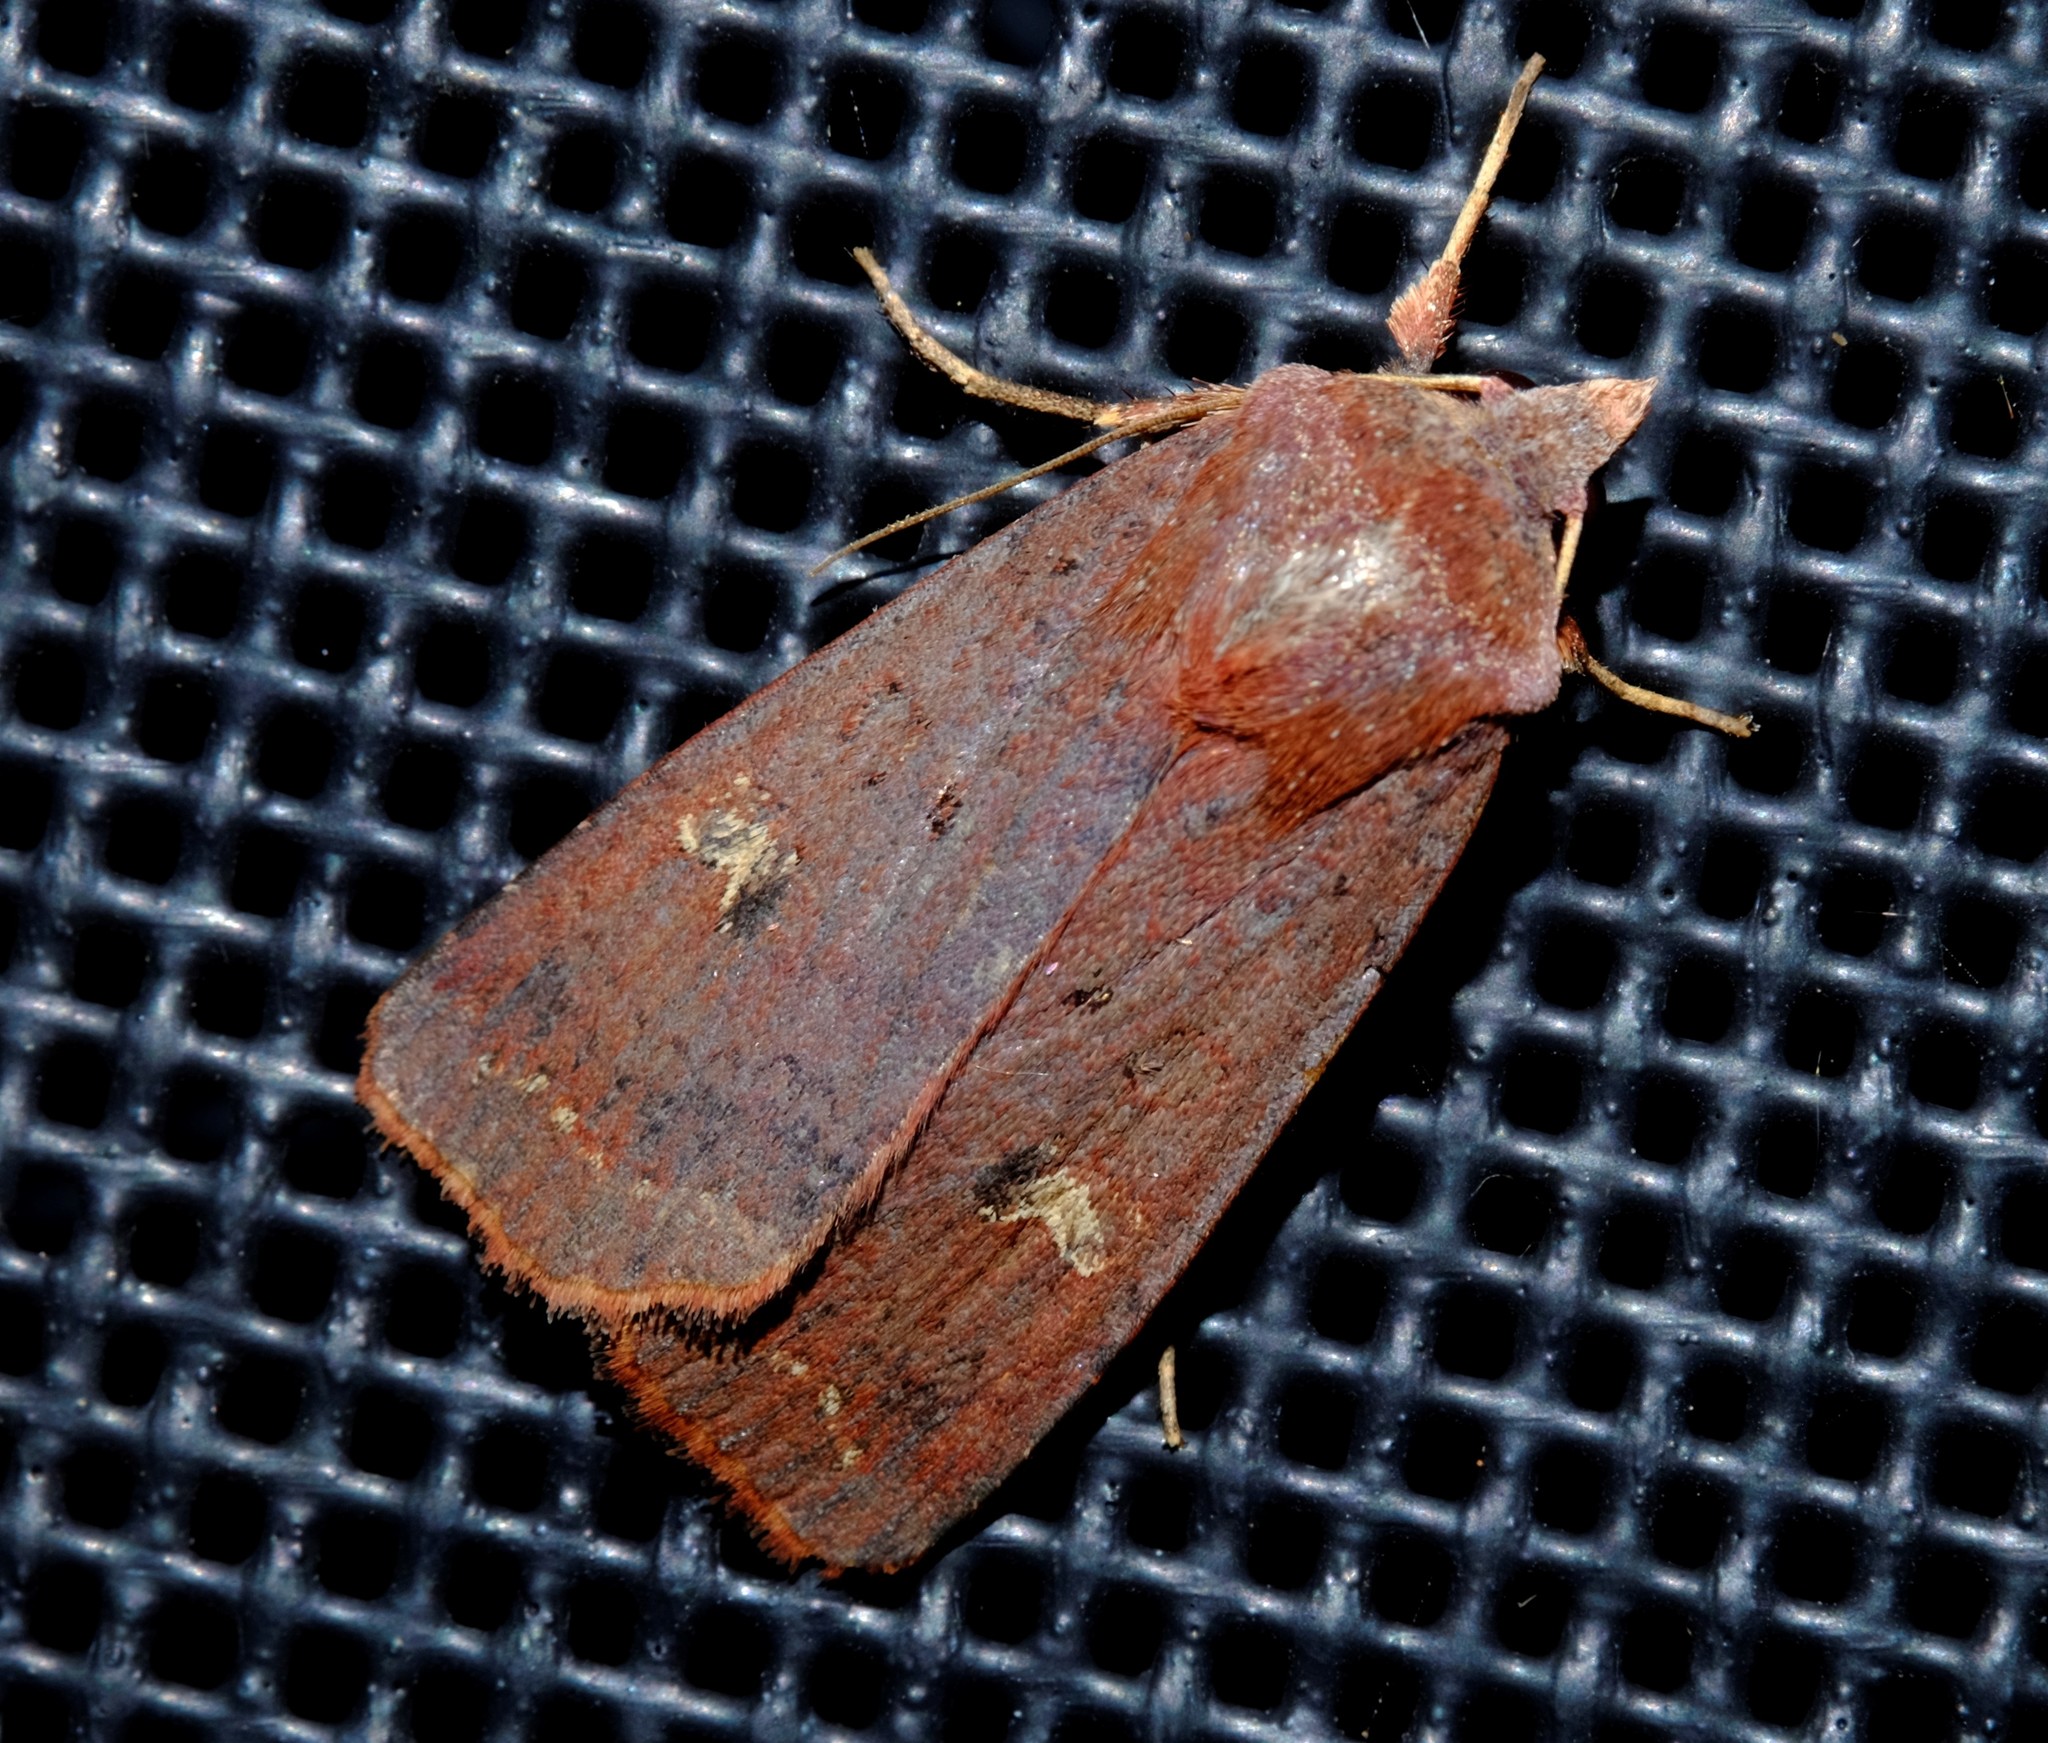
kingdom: Animalia
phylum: Arthropoda
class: Insecta
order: Lepidoptera
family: Noctuidae
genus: Diarsia
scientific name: Diarsia intermixta
